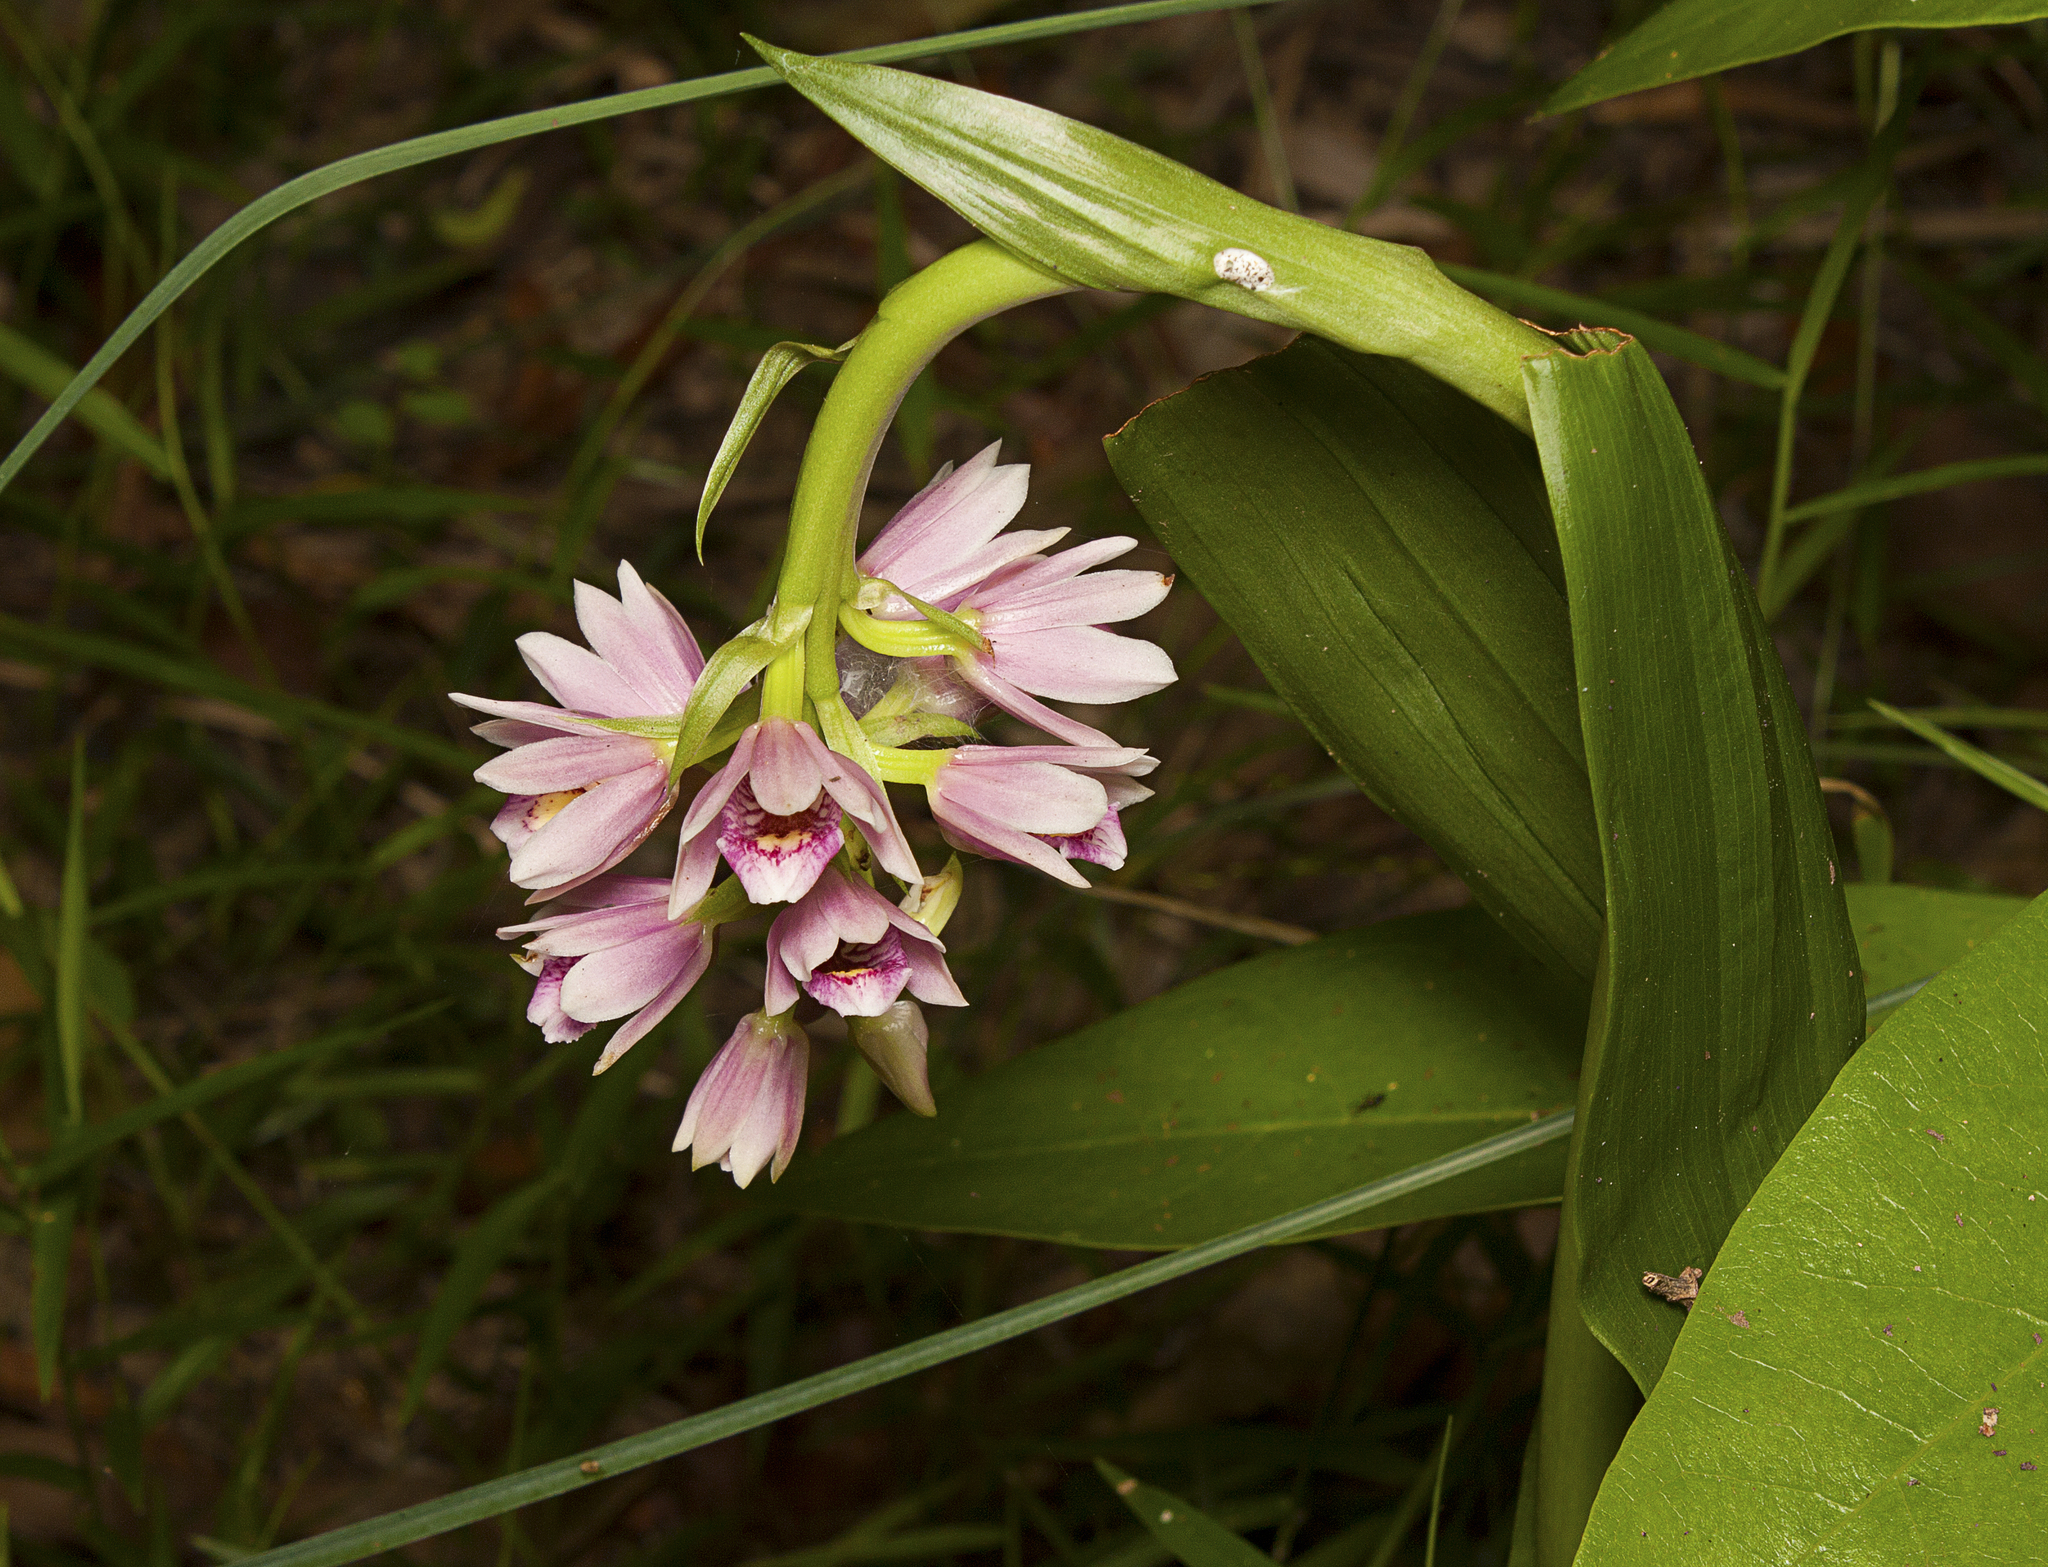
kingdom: Plantae
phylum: Tracheophyta
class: Liliopsida
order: Asparagales
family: Orchidaceae
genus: Eulophia
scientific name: Eulophia cernua
